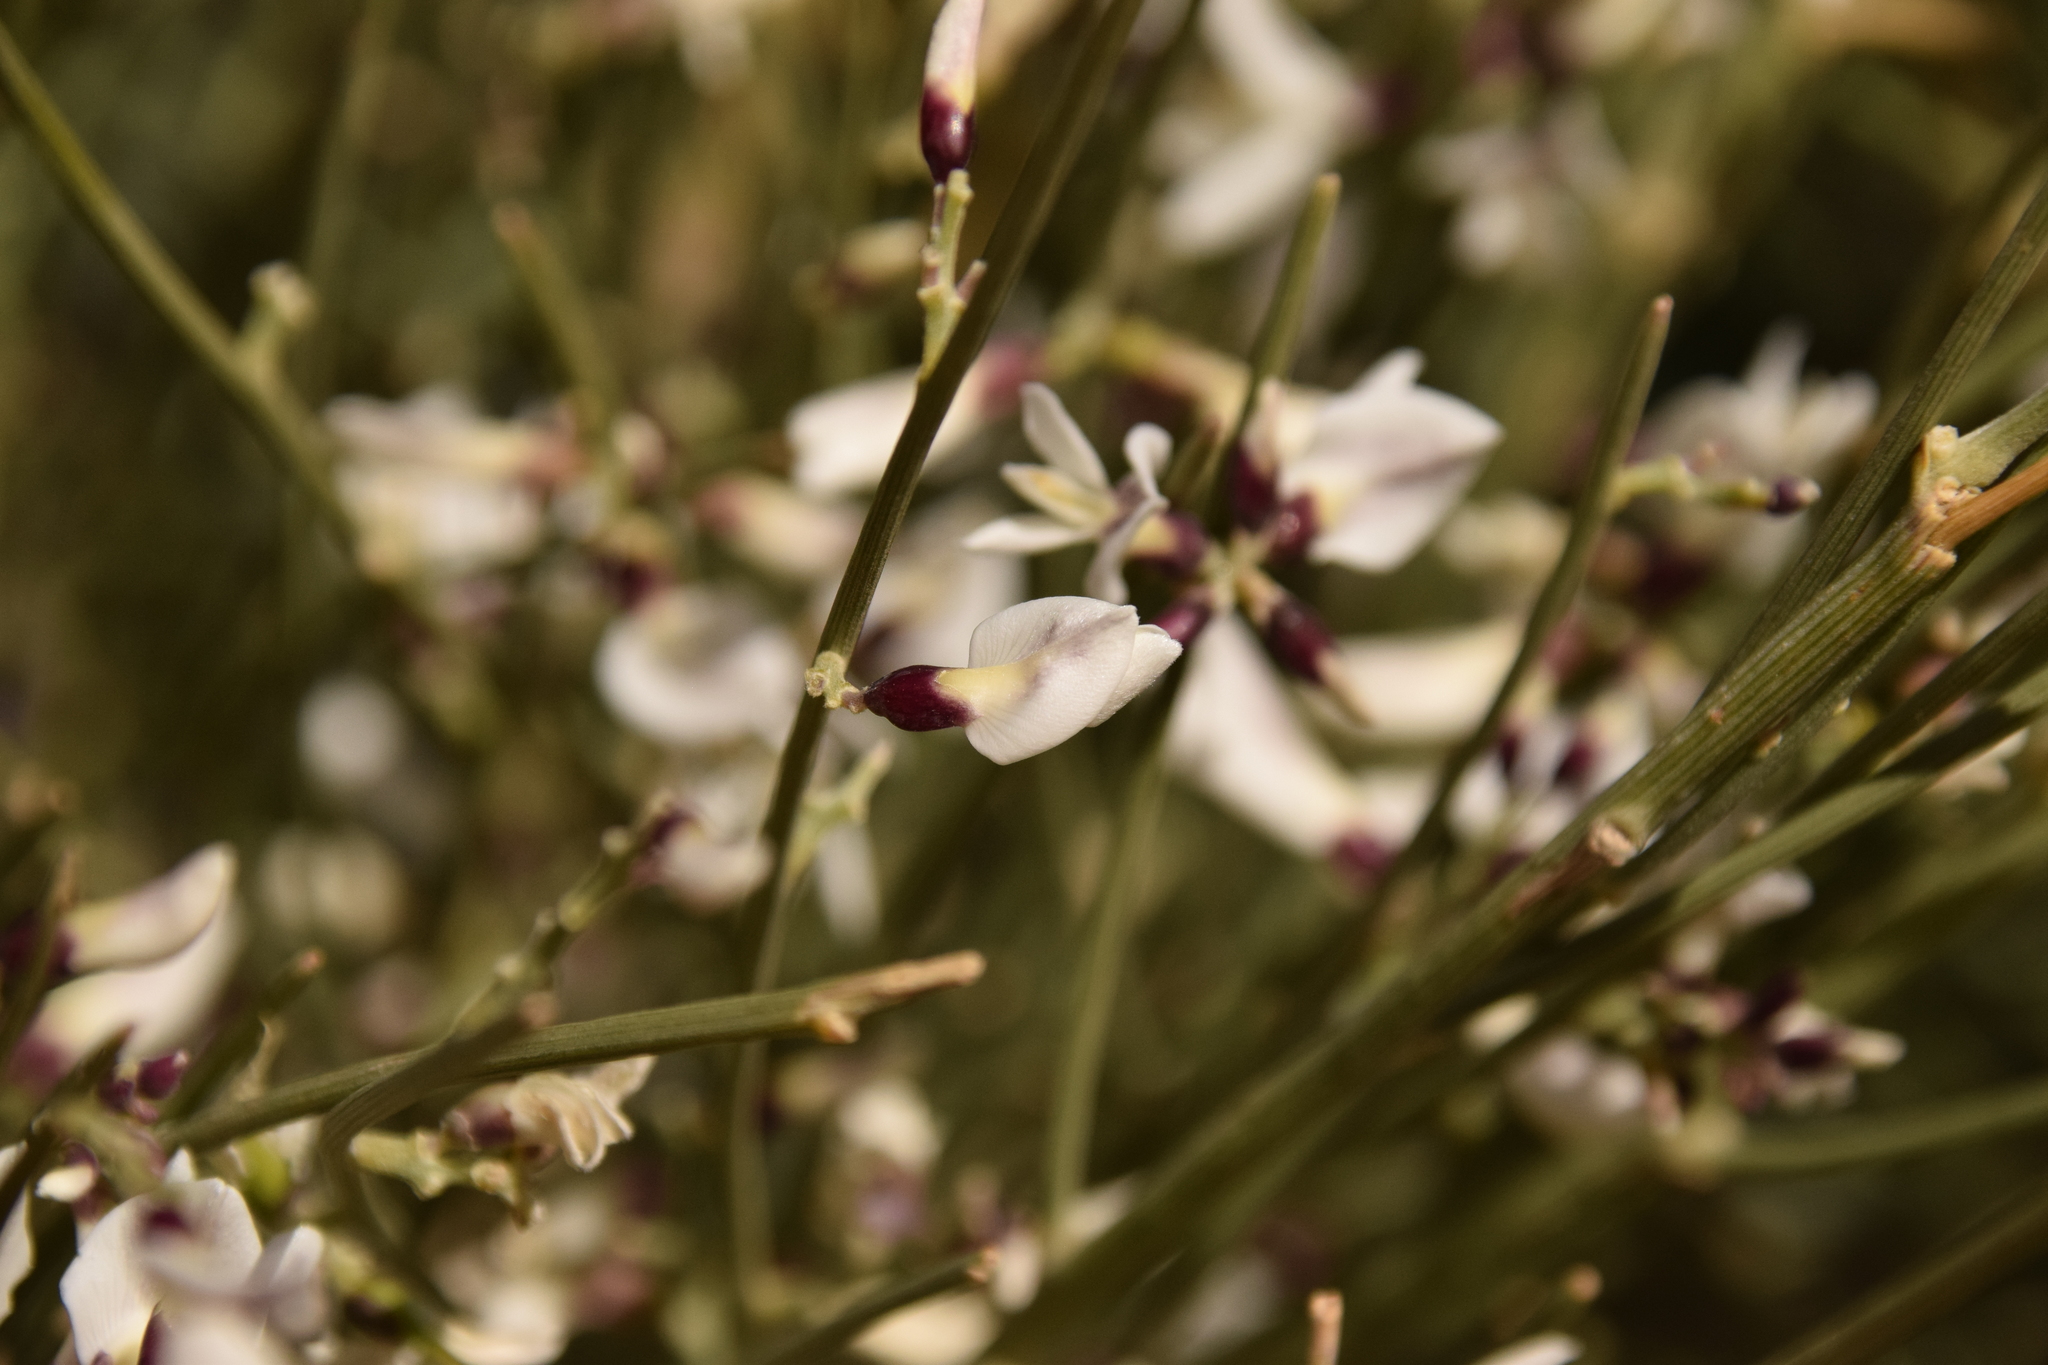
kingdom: Plantae
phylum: Tracheophyta
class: Magnoliopsida
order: Fabales
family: Fabaceae
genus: Retama
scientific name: Retama raetam
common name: Retem
